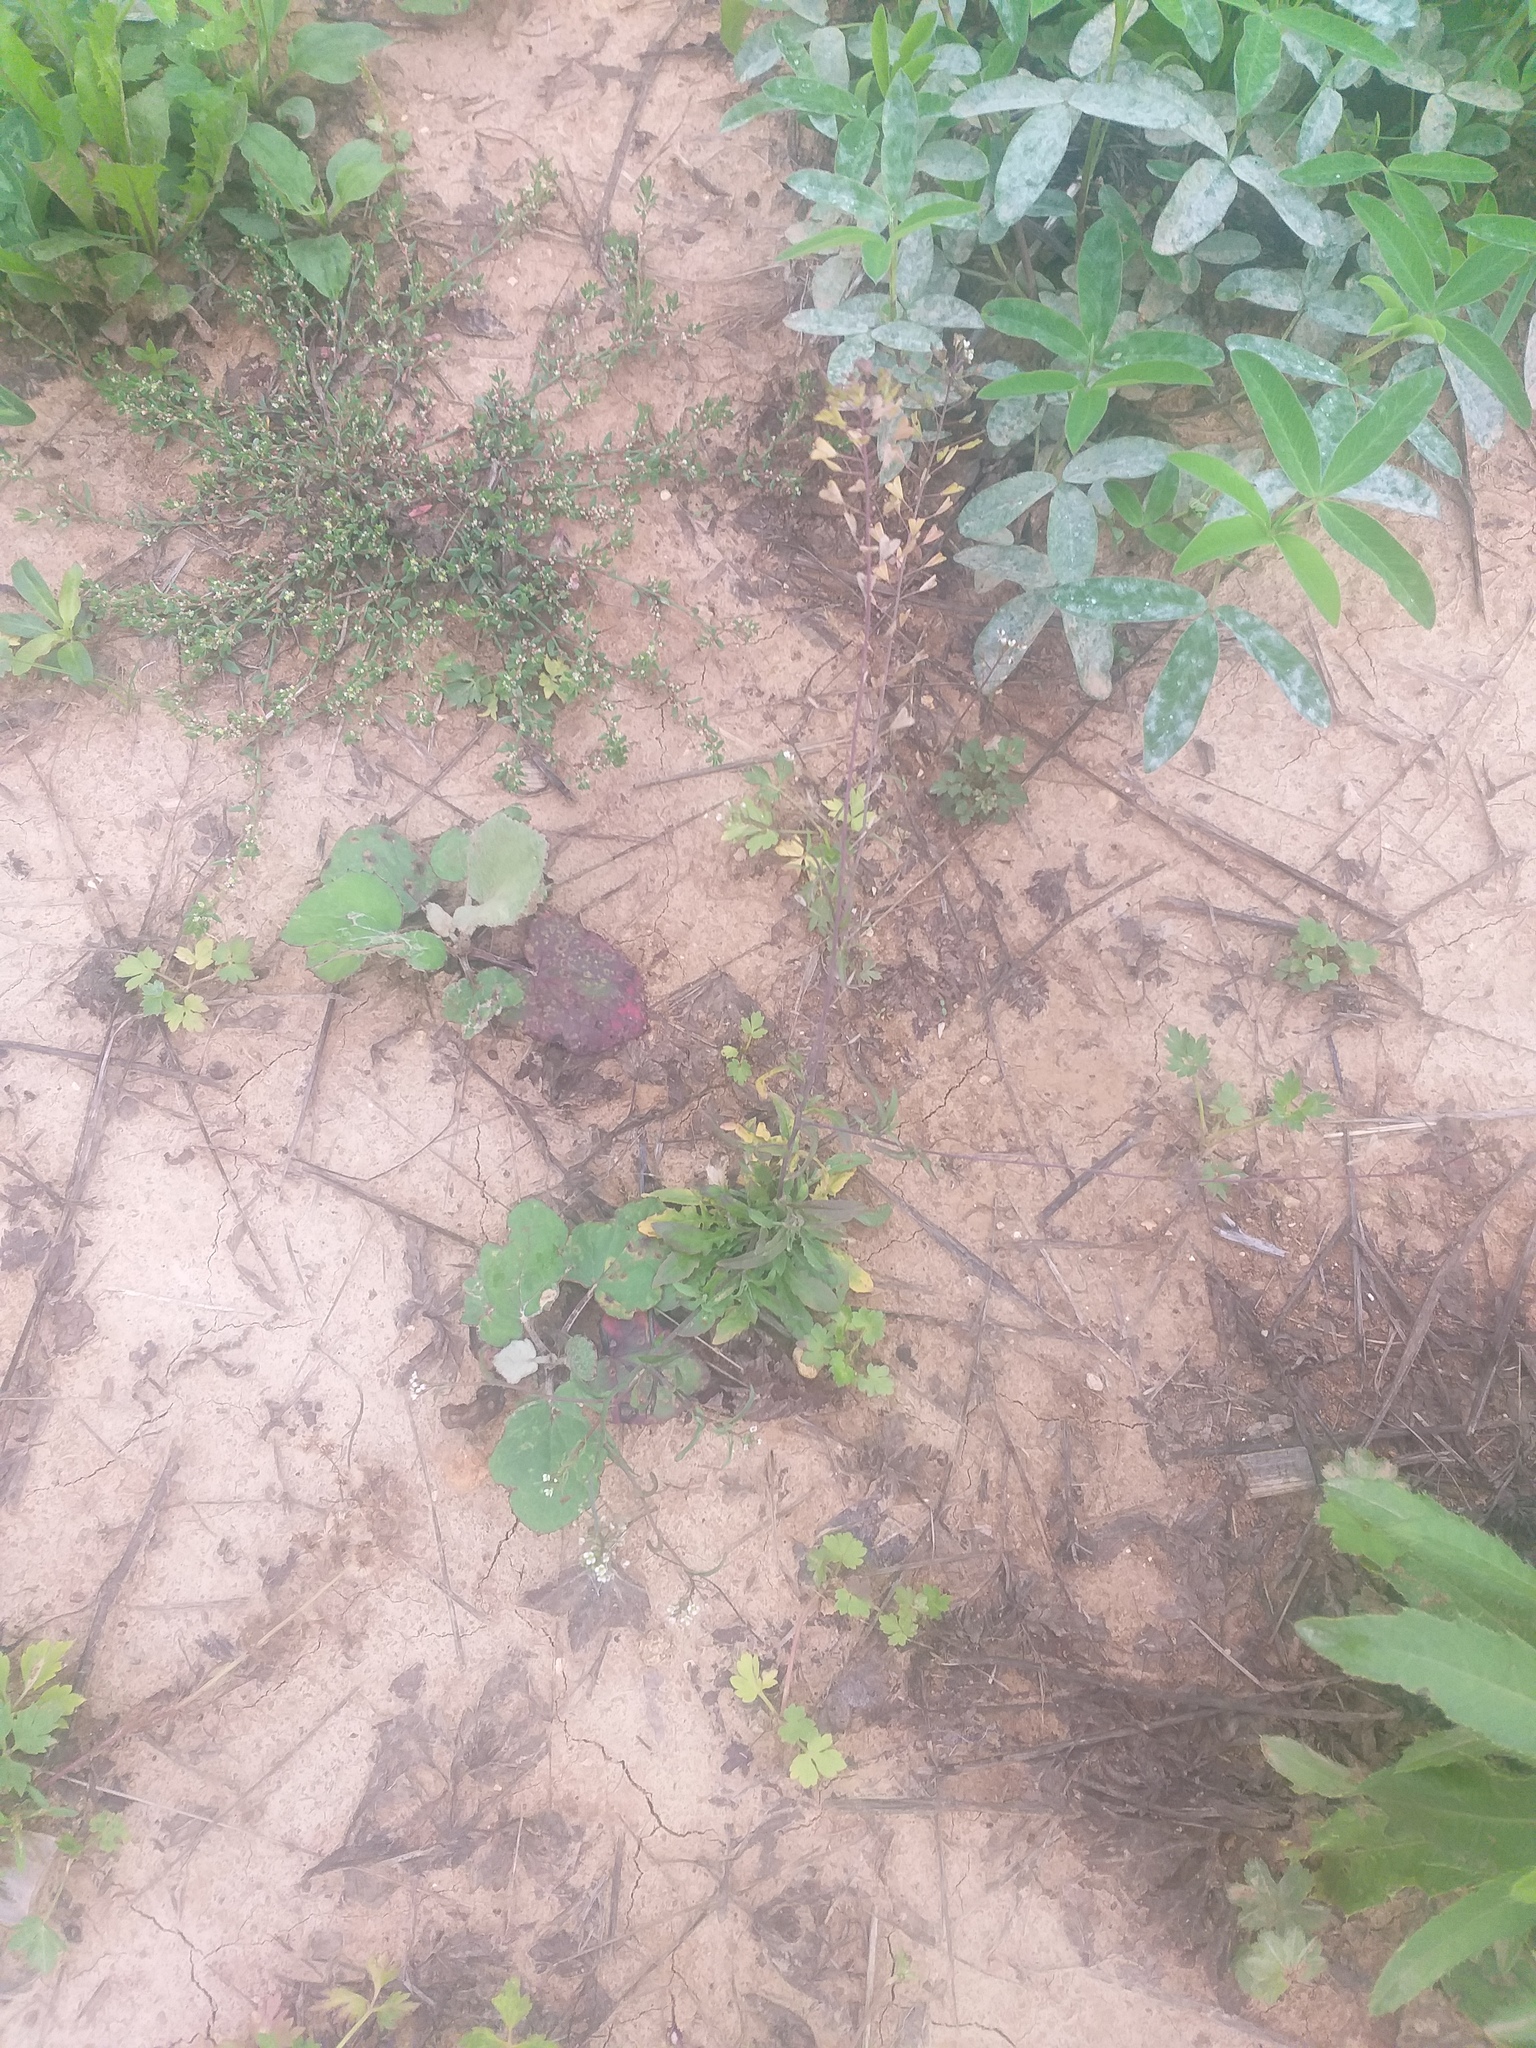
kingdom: Plantae
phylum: Tracheophyta
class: Magnoliopsida
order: Brassicales
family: Brassicaceae
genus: Capsella
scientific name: Capsella bursa-pastoris
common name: Shepherd's purse
